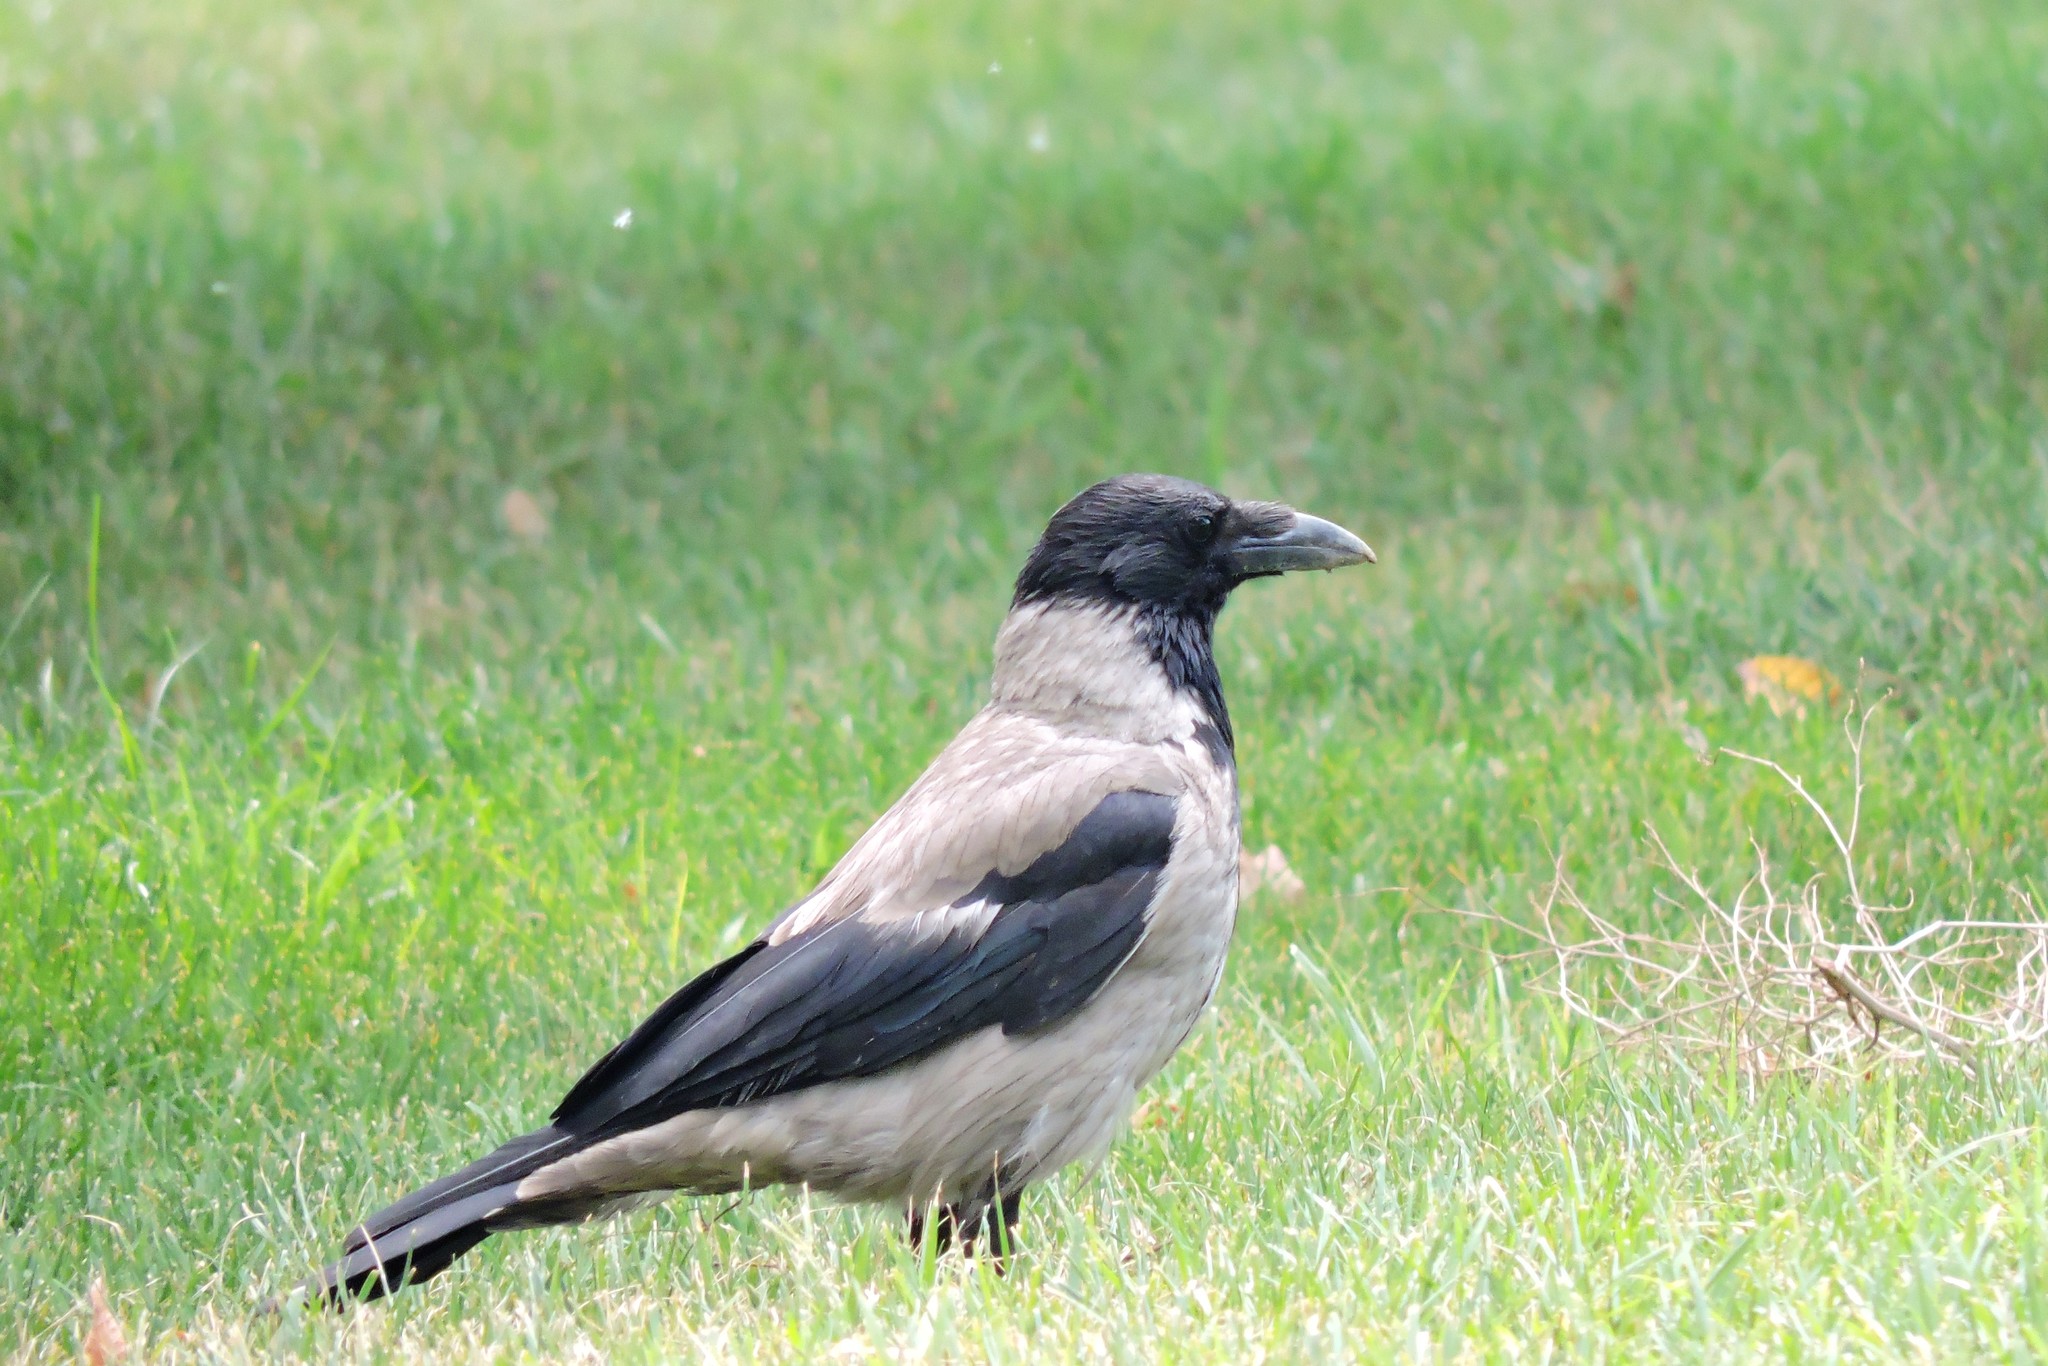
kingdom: Animalia
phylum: Chordata
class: Aves
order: Passeriformes
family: Corvidae
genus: Corvus
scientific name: Corvus cornix
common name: Hooded crow
